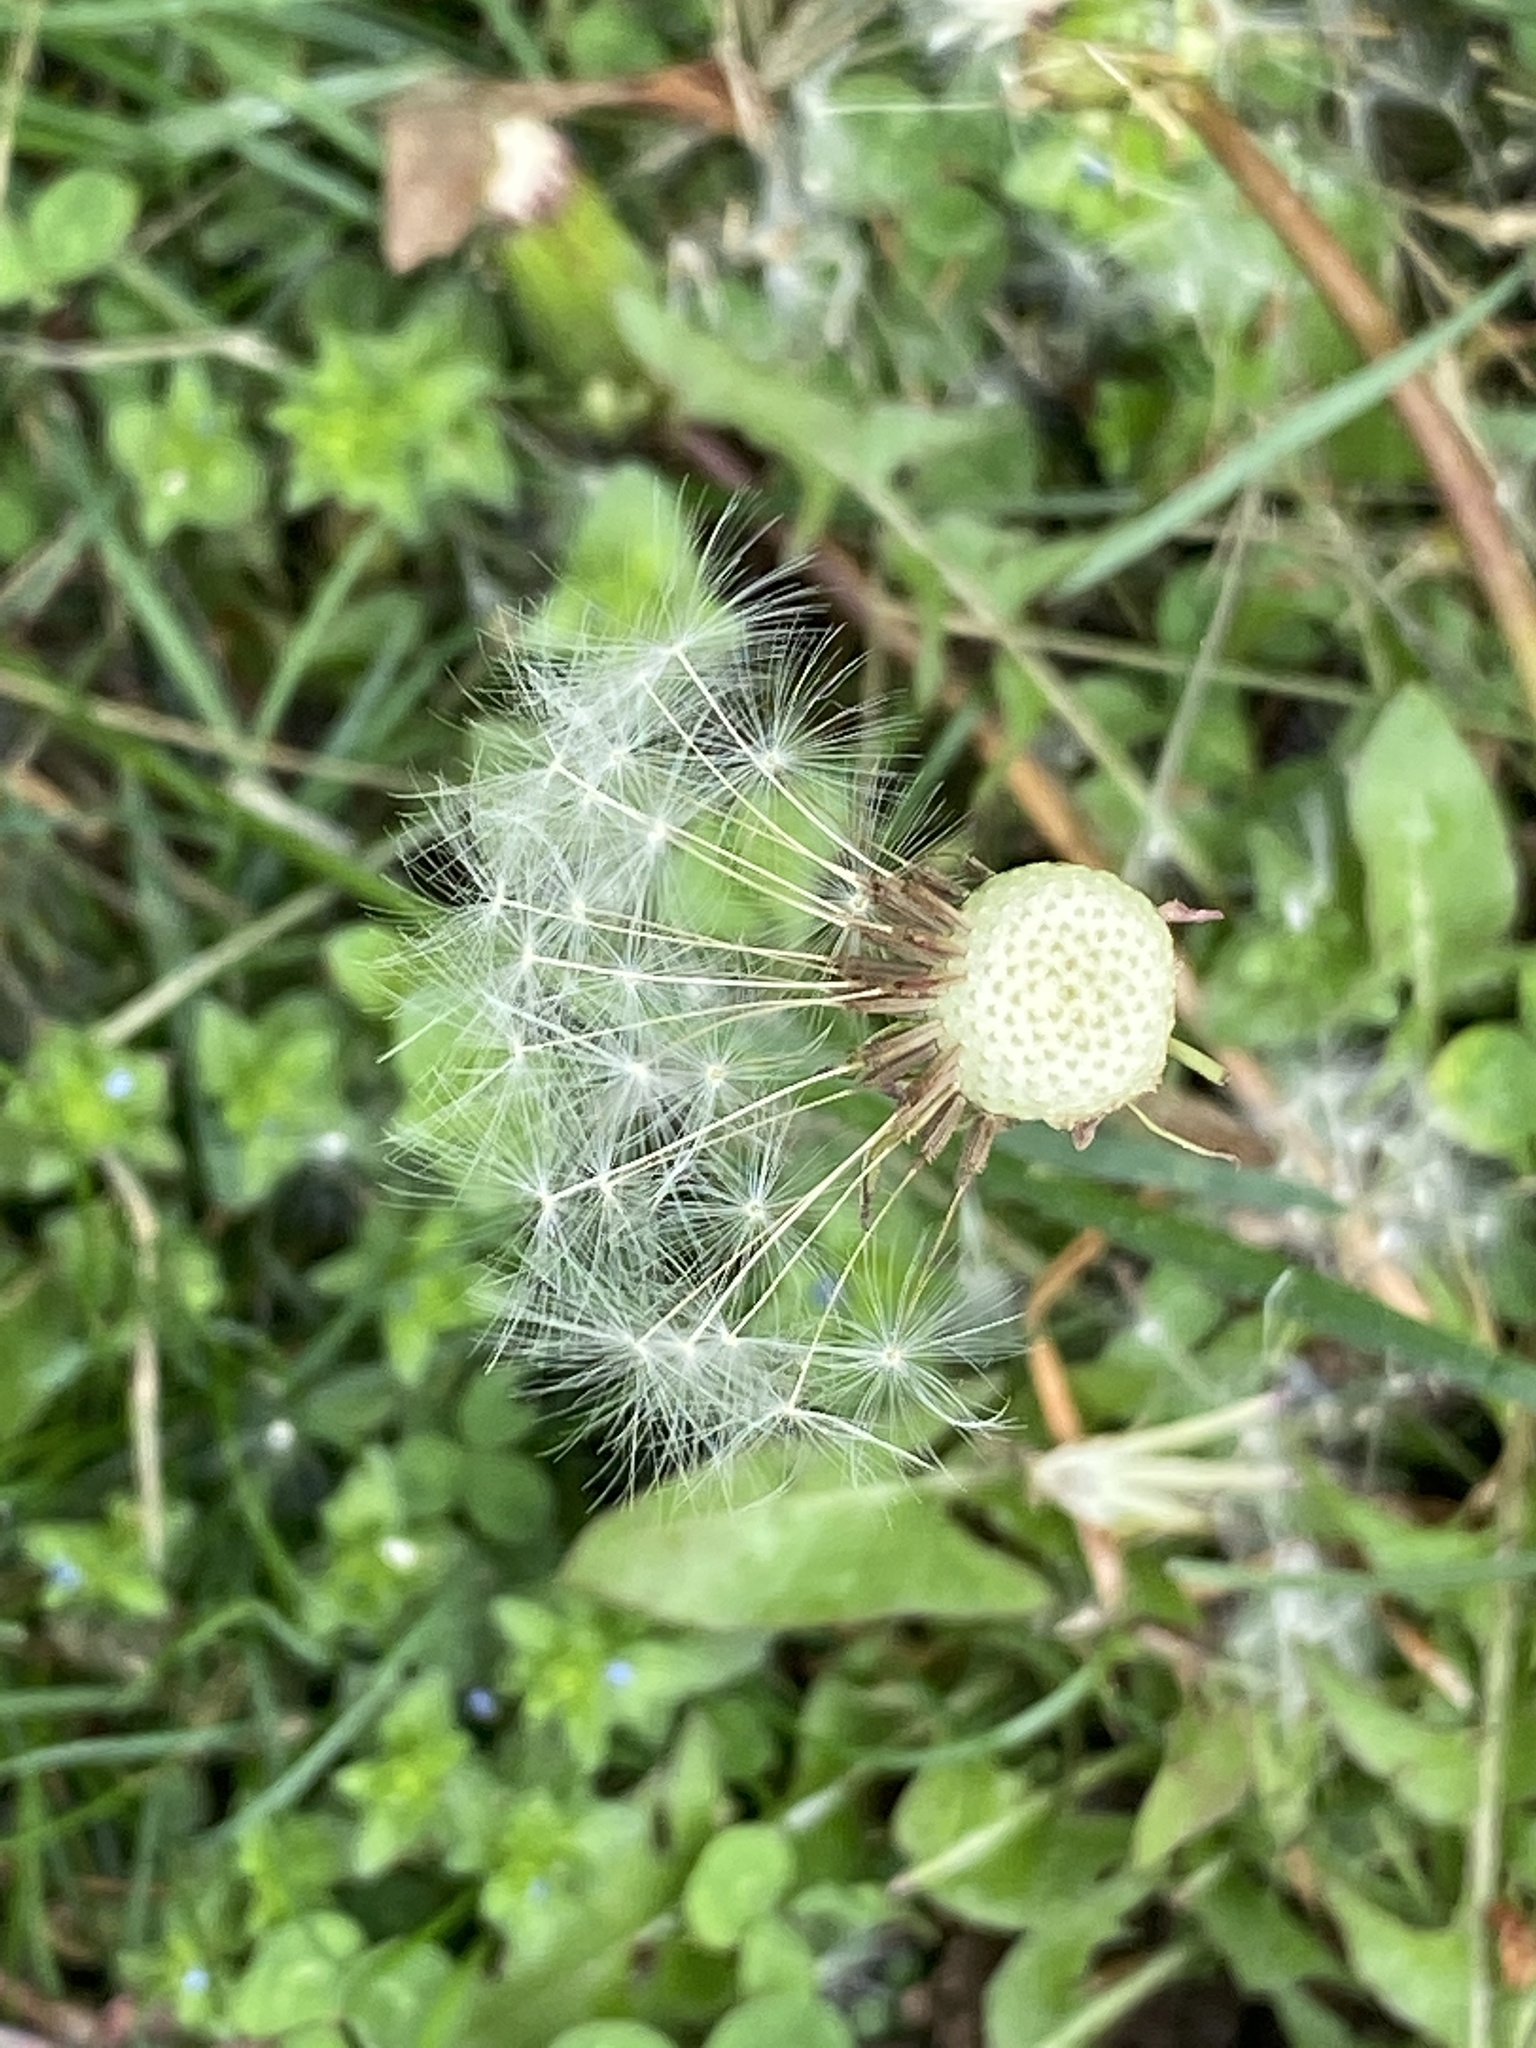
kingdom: Plantae
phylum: Tracheophyta
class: Magnoliopsida
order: Asterales
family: Asteraceae
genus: Taraxacum
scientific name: Taraxacum officinale
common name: Common dandelion
